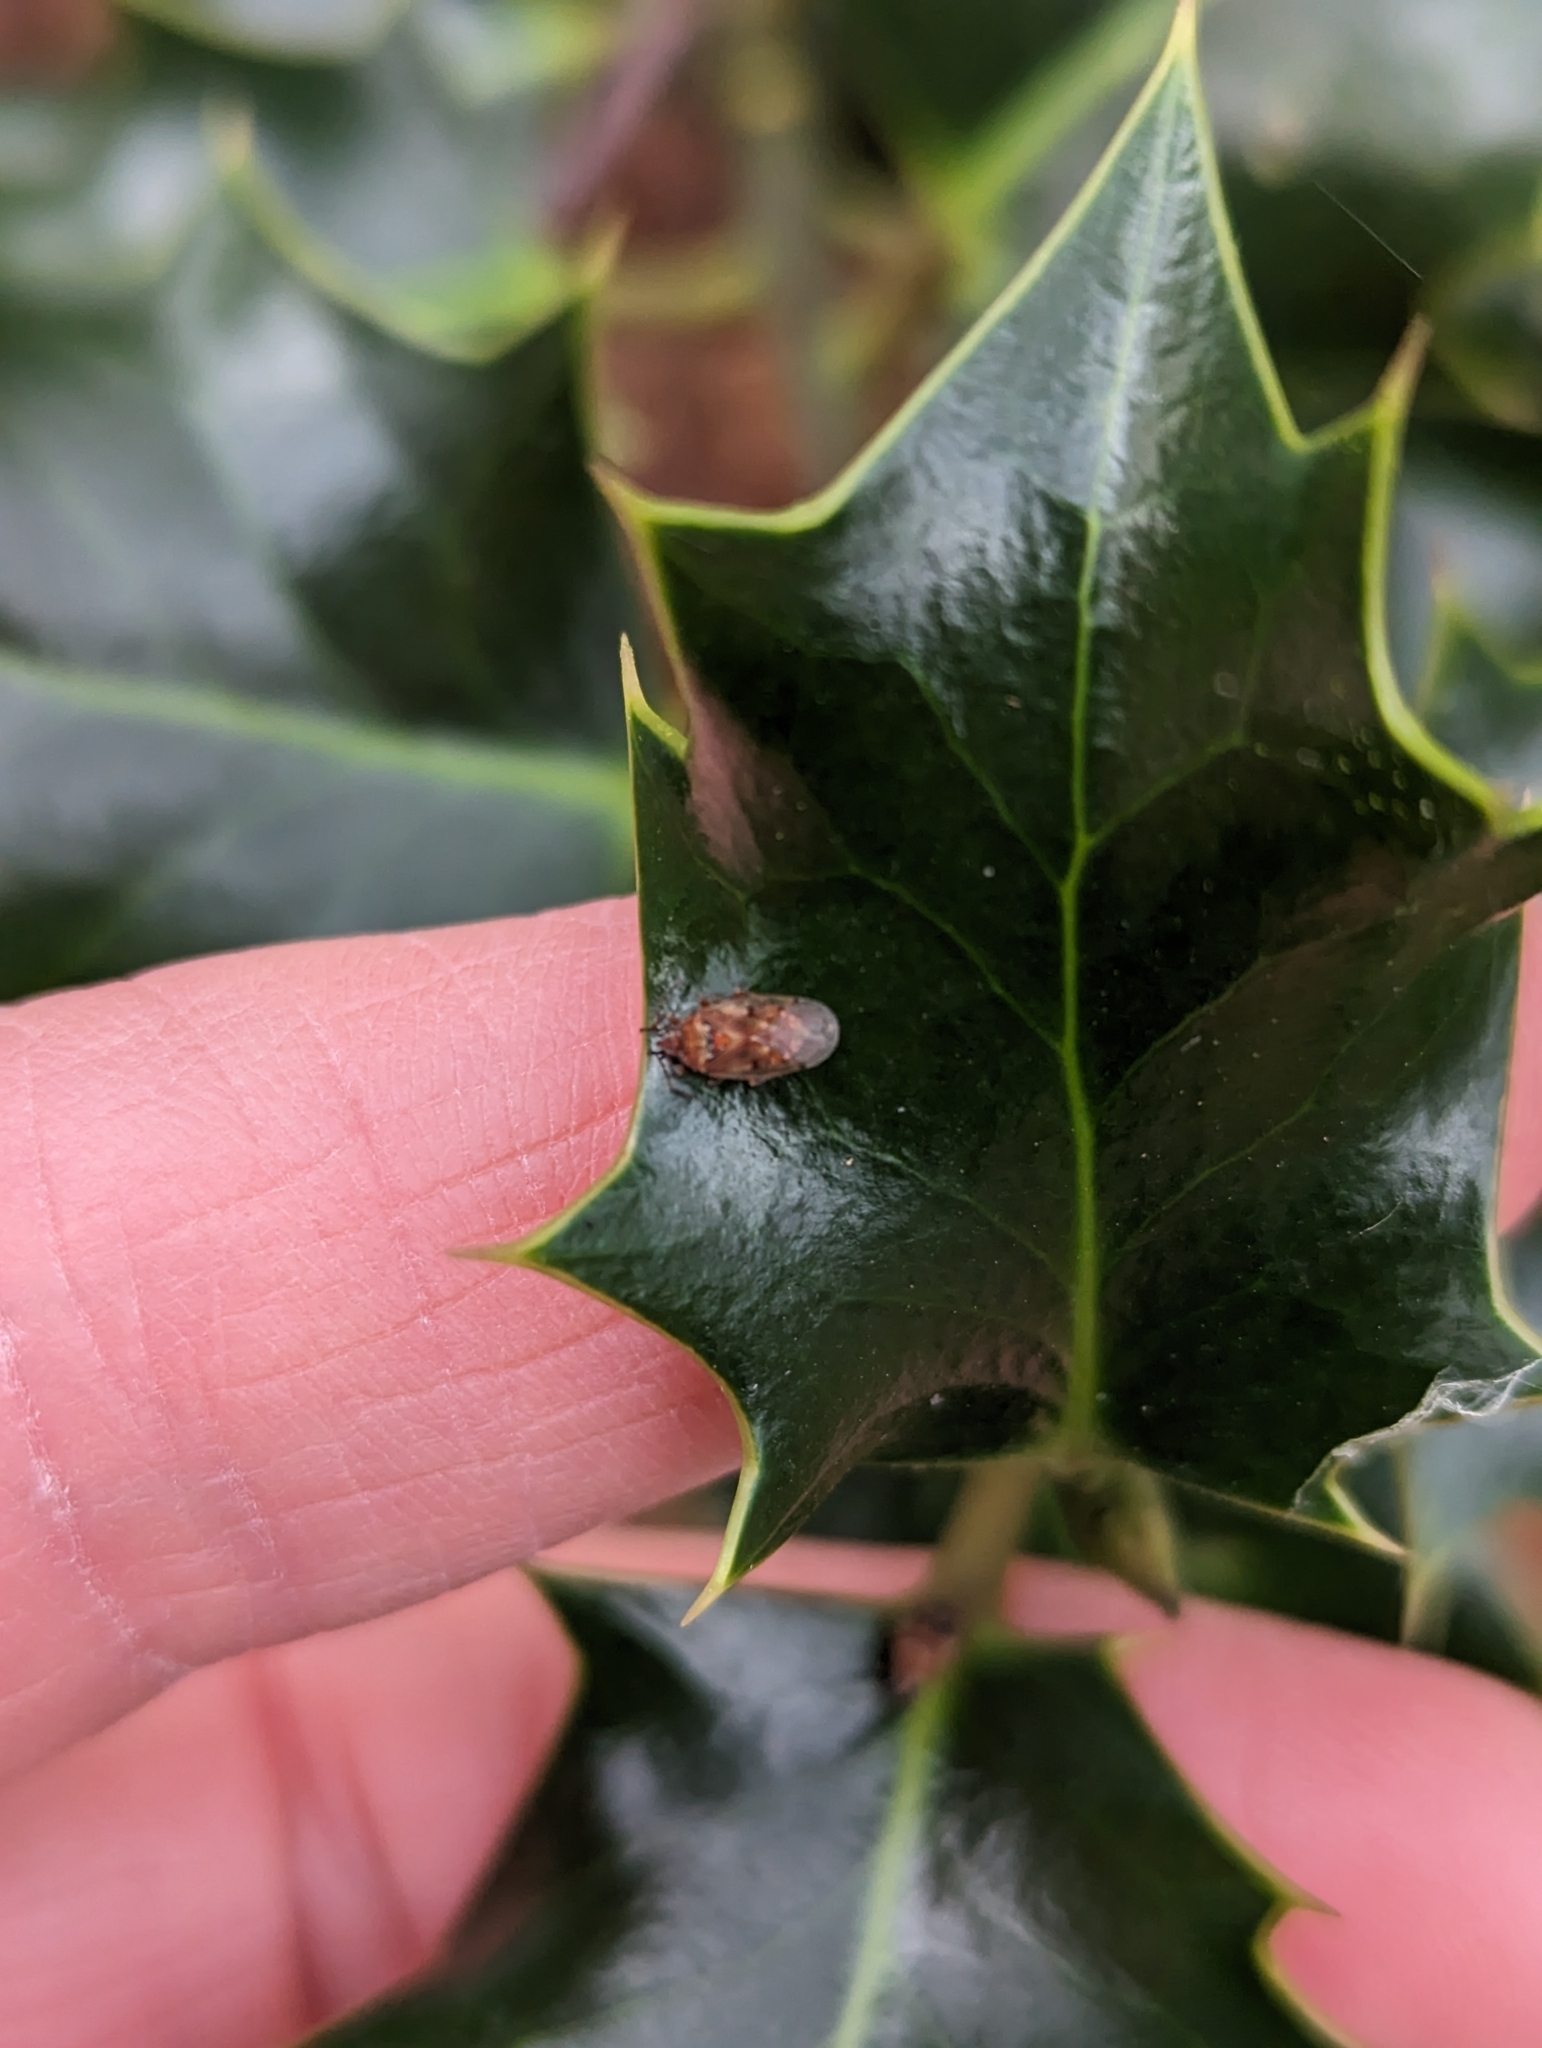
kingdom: Animalia
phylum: Arthropoda
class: Insecta
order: Hemiptera
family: Lygaeidae
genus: Kleidocerys
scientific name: Kleidocerys resedae
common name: Birch catkin bug
